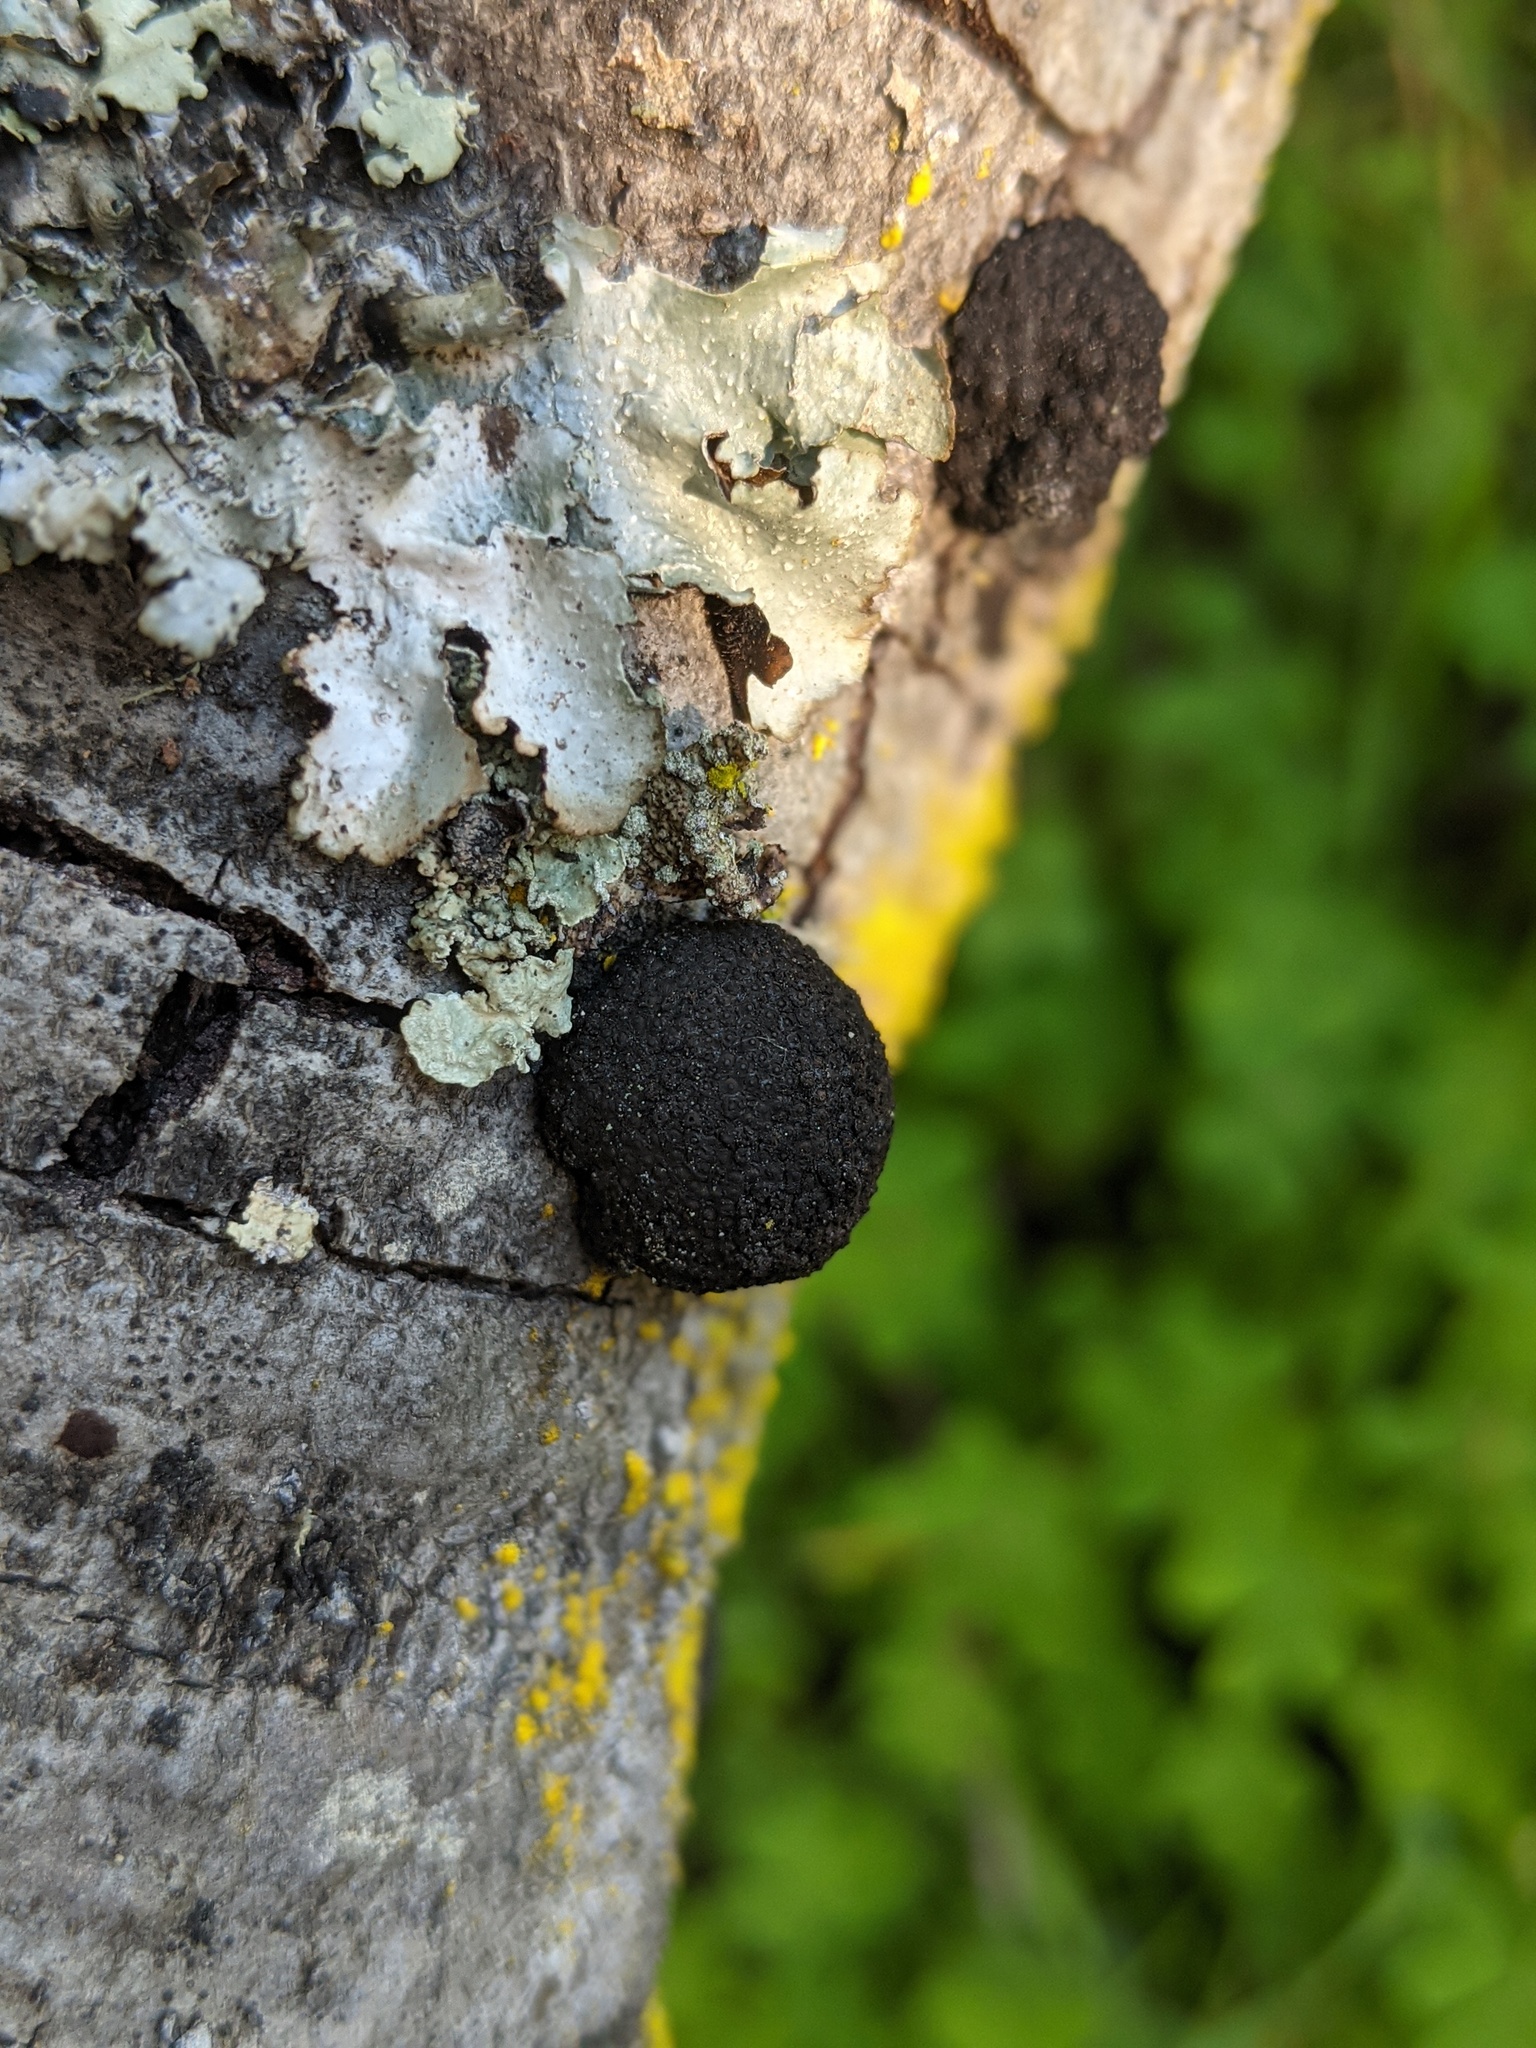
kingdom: Fungi
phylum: Ascomycota
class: Sordariomycetes
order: Xylariales
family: Hypoxylaceae
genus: Annulohypoxylon
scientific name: Annulohypoxylon thouarsianum
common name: Cramp balls
